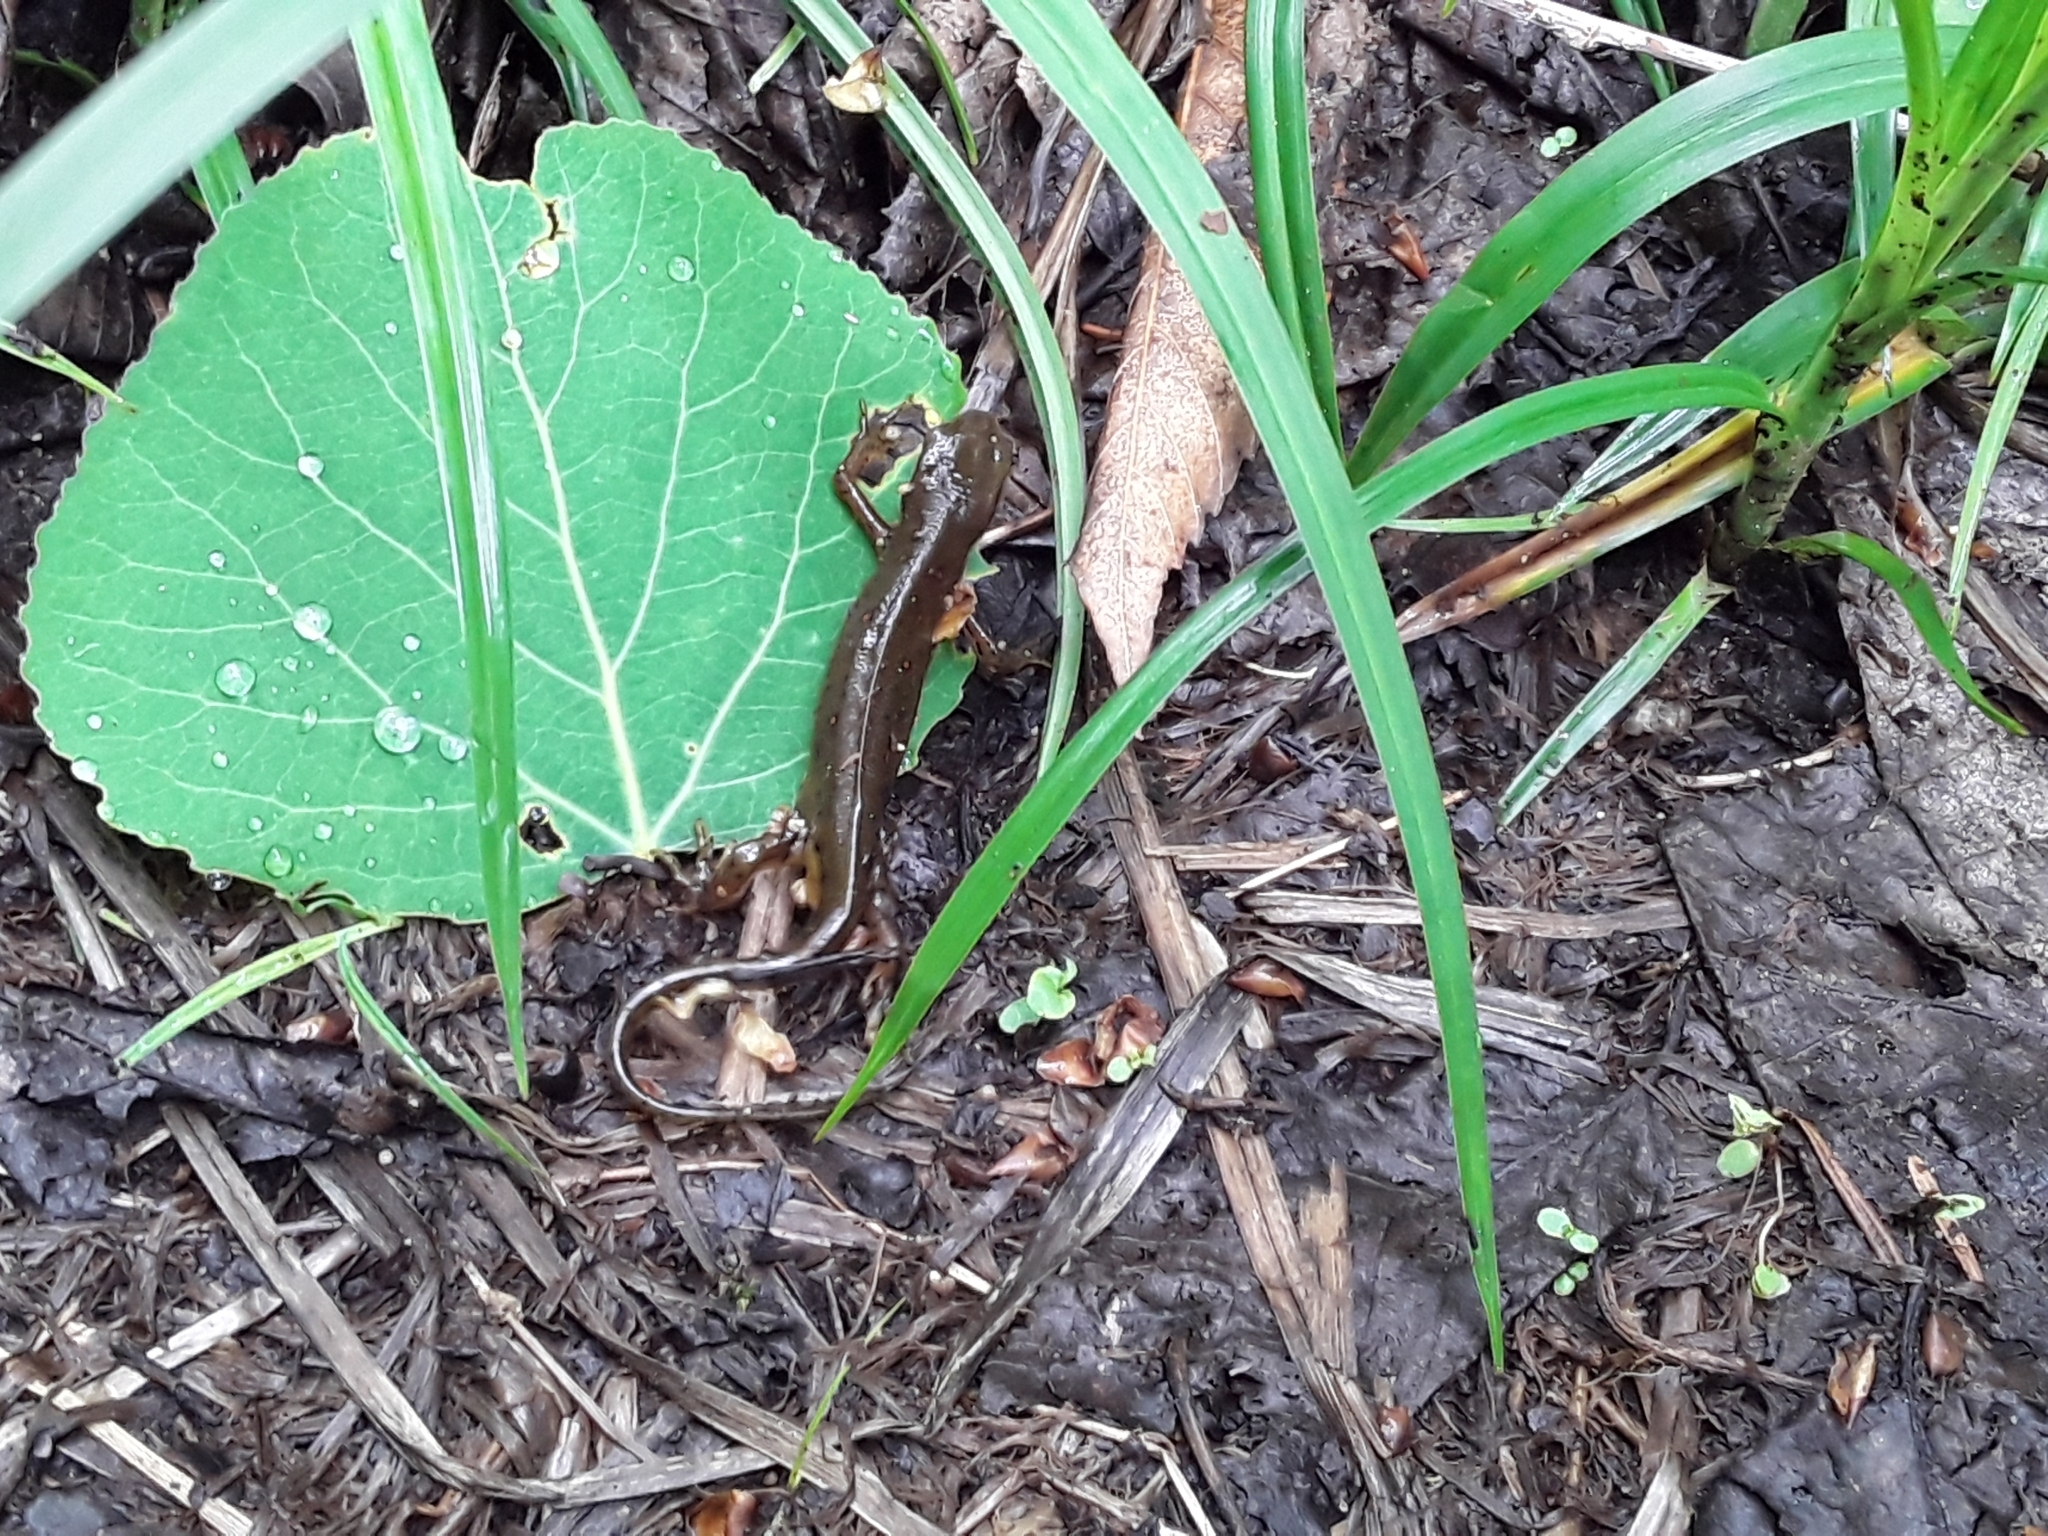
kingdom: Animalia
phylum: Chordata
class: Amphibia
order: Caudata
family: Salamandridae
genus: Notophthalmus
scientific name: Notophthalmus viridescens
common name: Eastern newt
